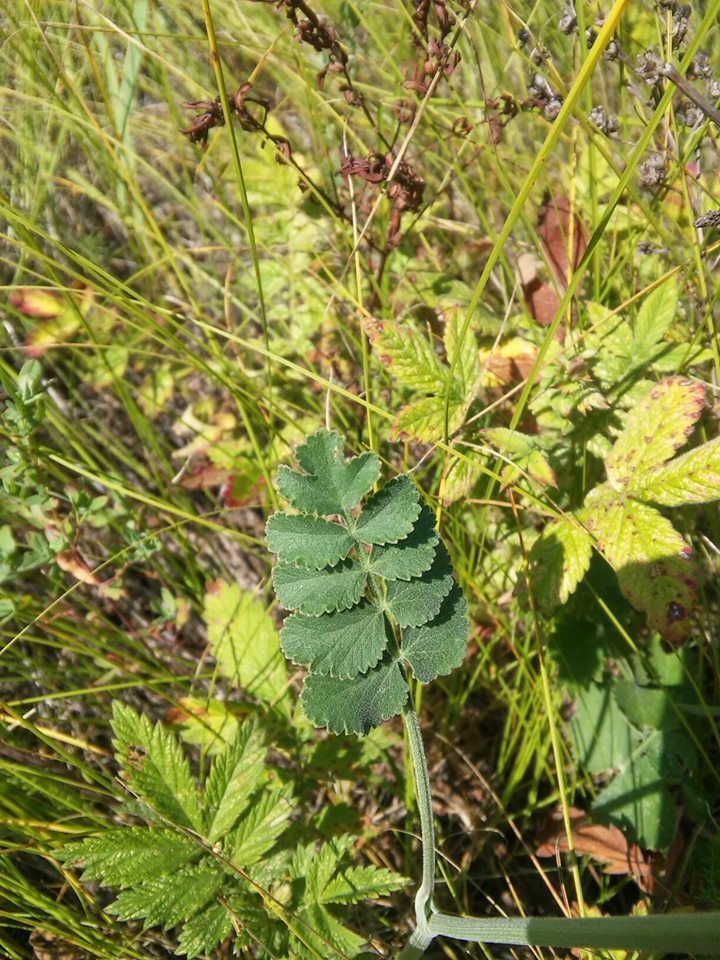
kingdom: Plantae
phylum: Tracheophyta
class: Magnoliopsida
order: Apiales
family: Apiaceae
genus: Pimpinella
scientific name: Pimpinella saxifraga
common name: Burnet-saxifrage
